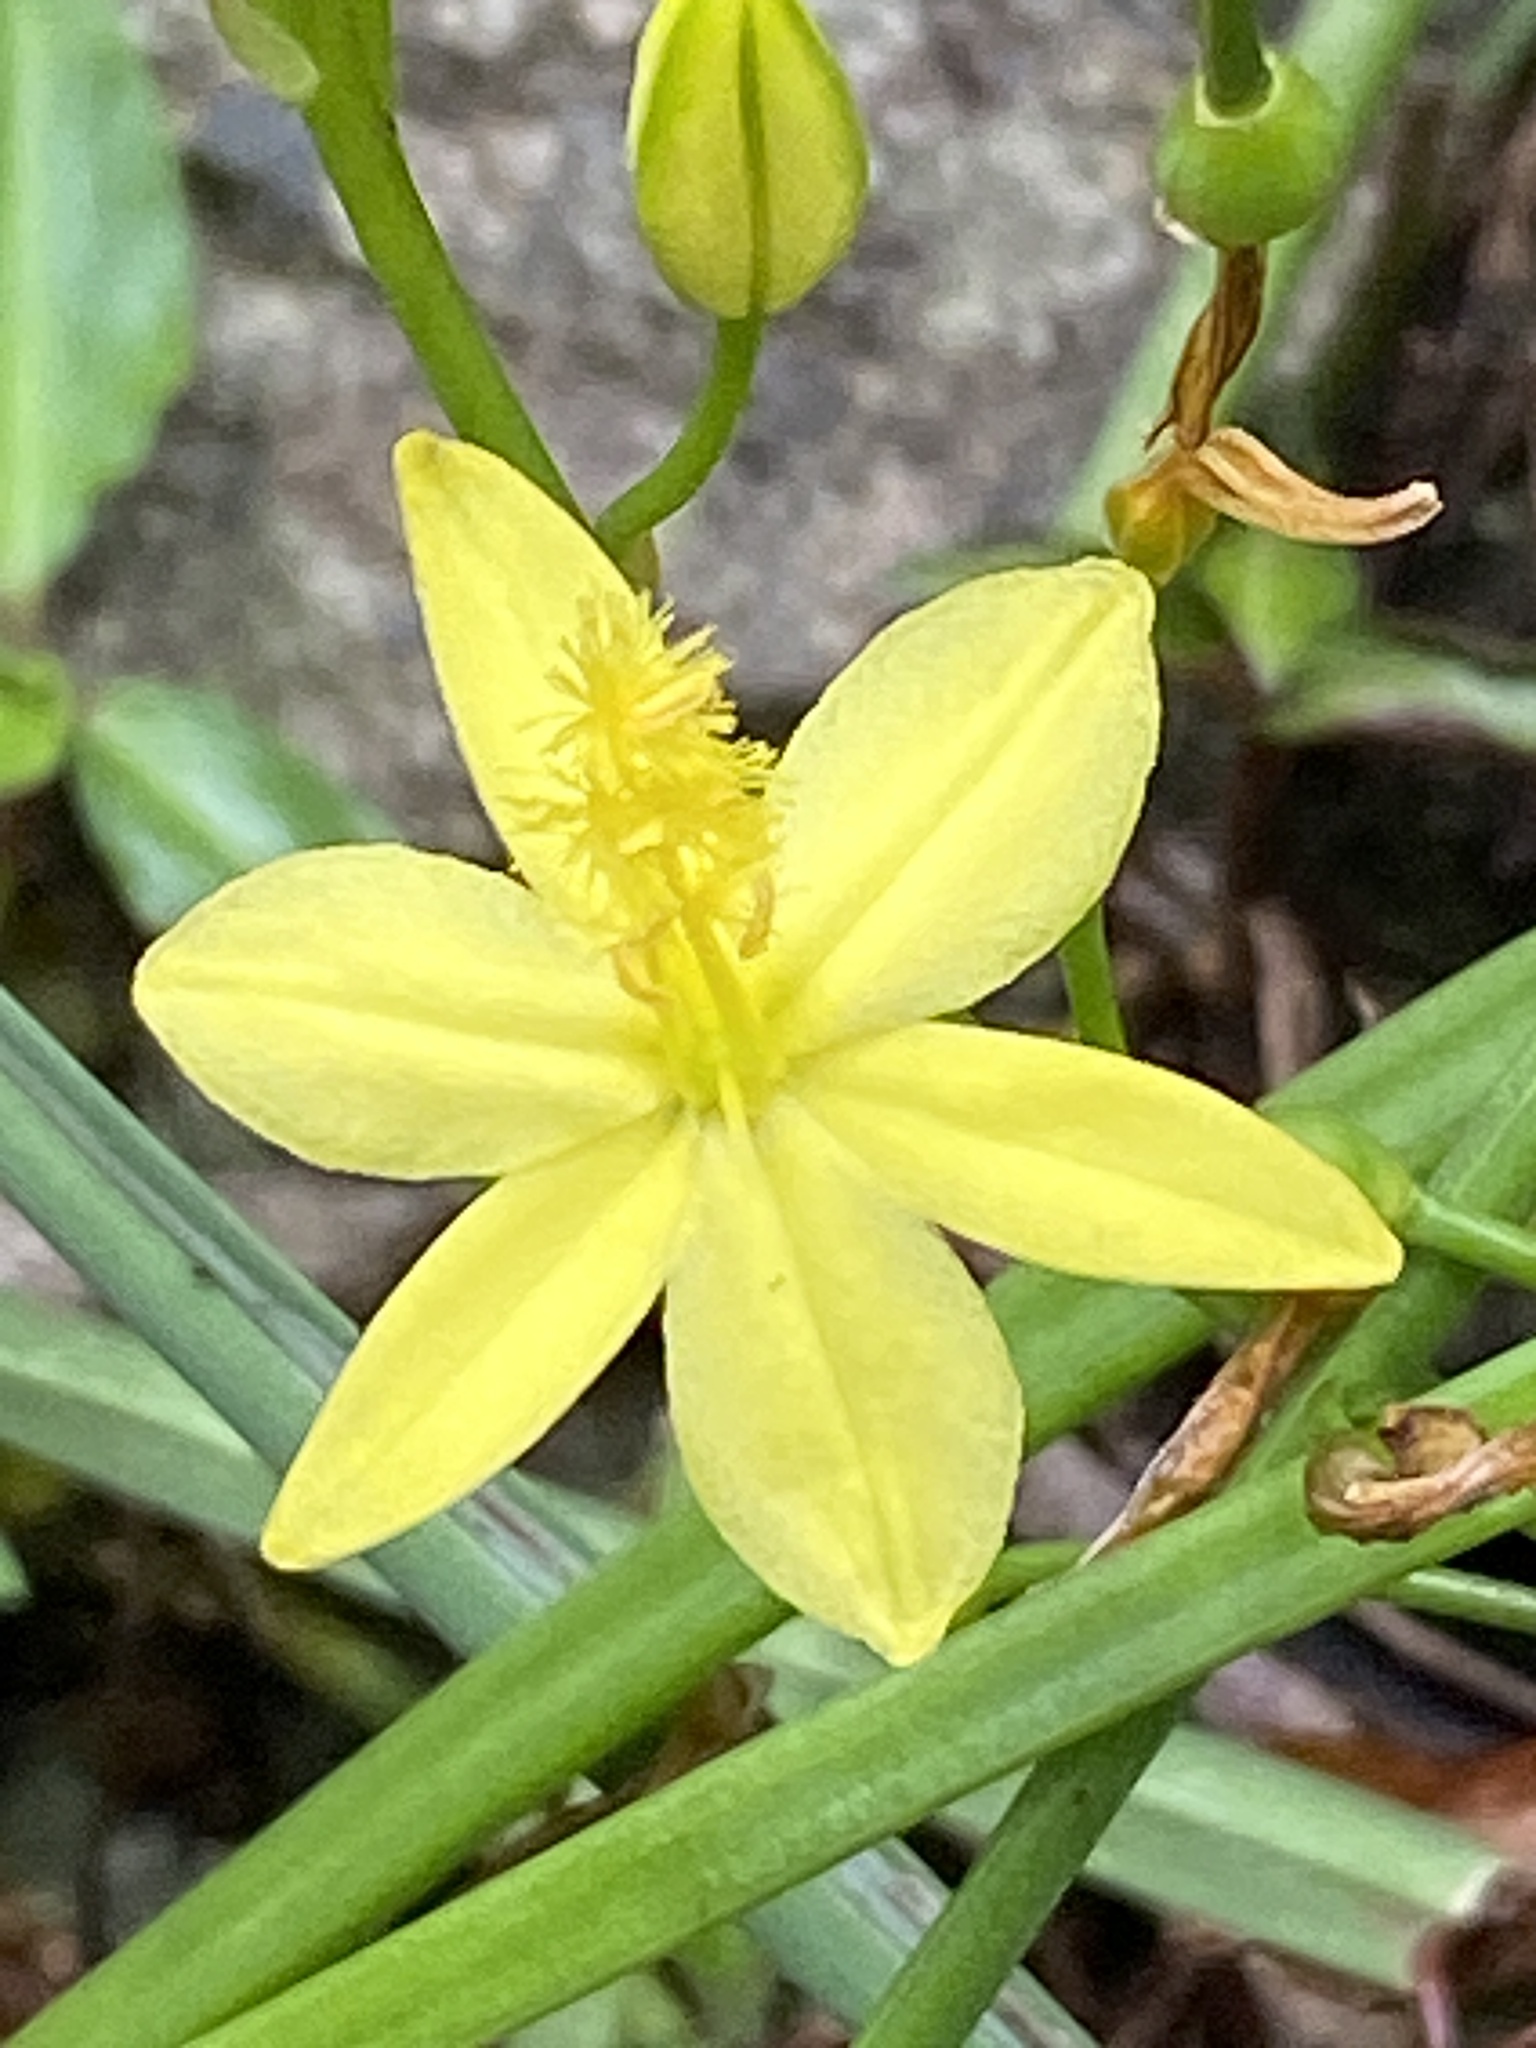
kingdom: Plantae
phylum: Tracheophyta
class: Liliopsida
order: Asparagales
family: Asphodelaceae
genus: Bulbine
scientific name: Bulbine bulbosa
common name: Golden-lily
